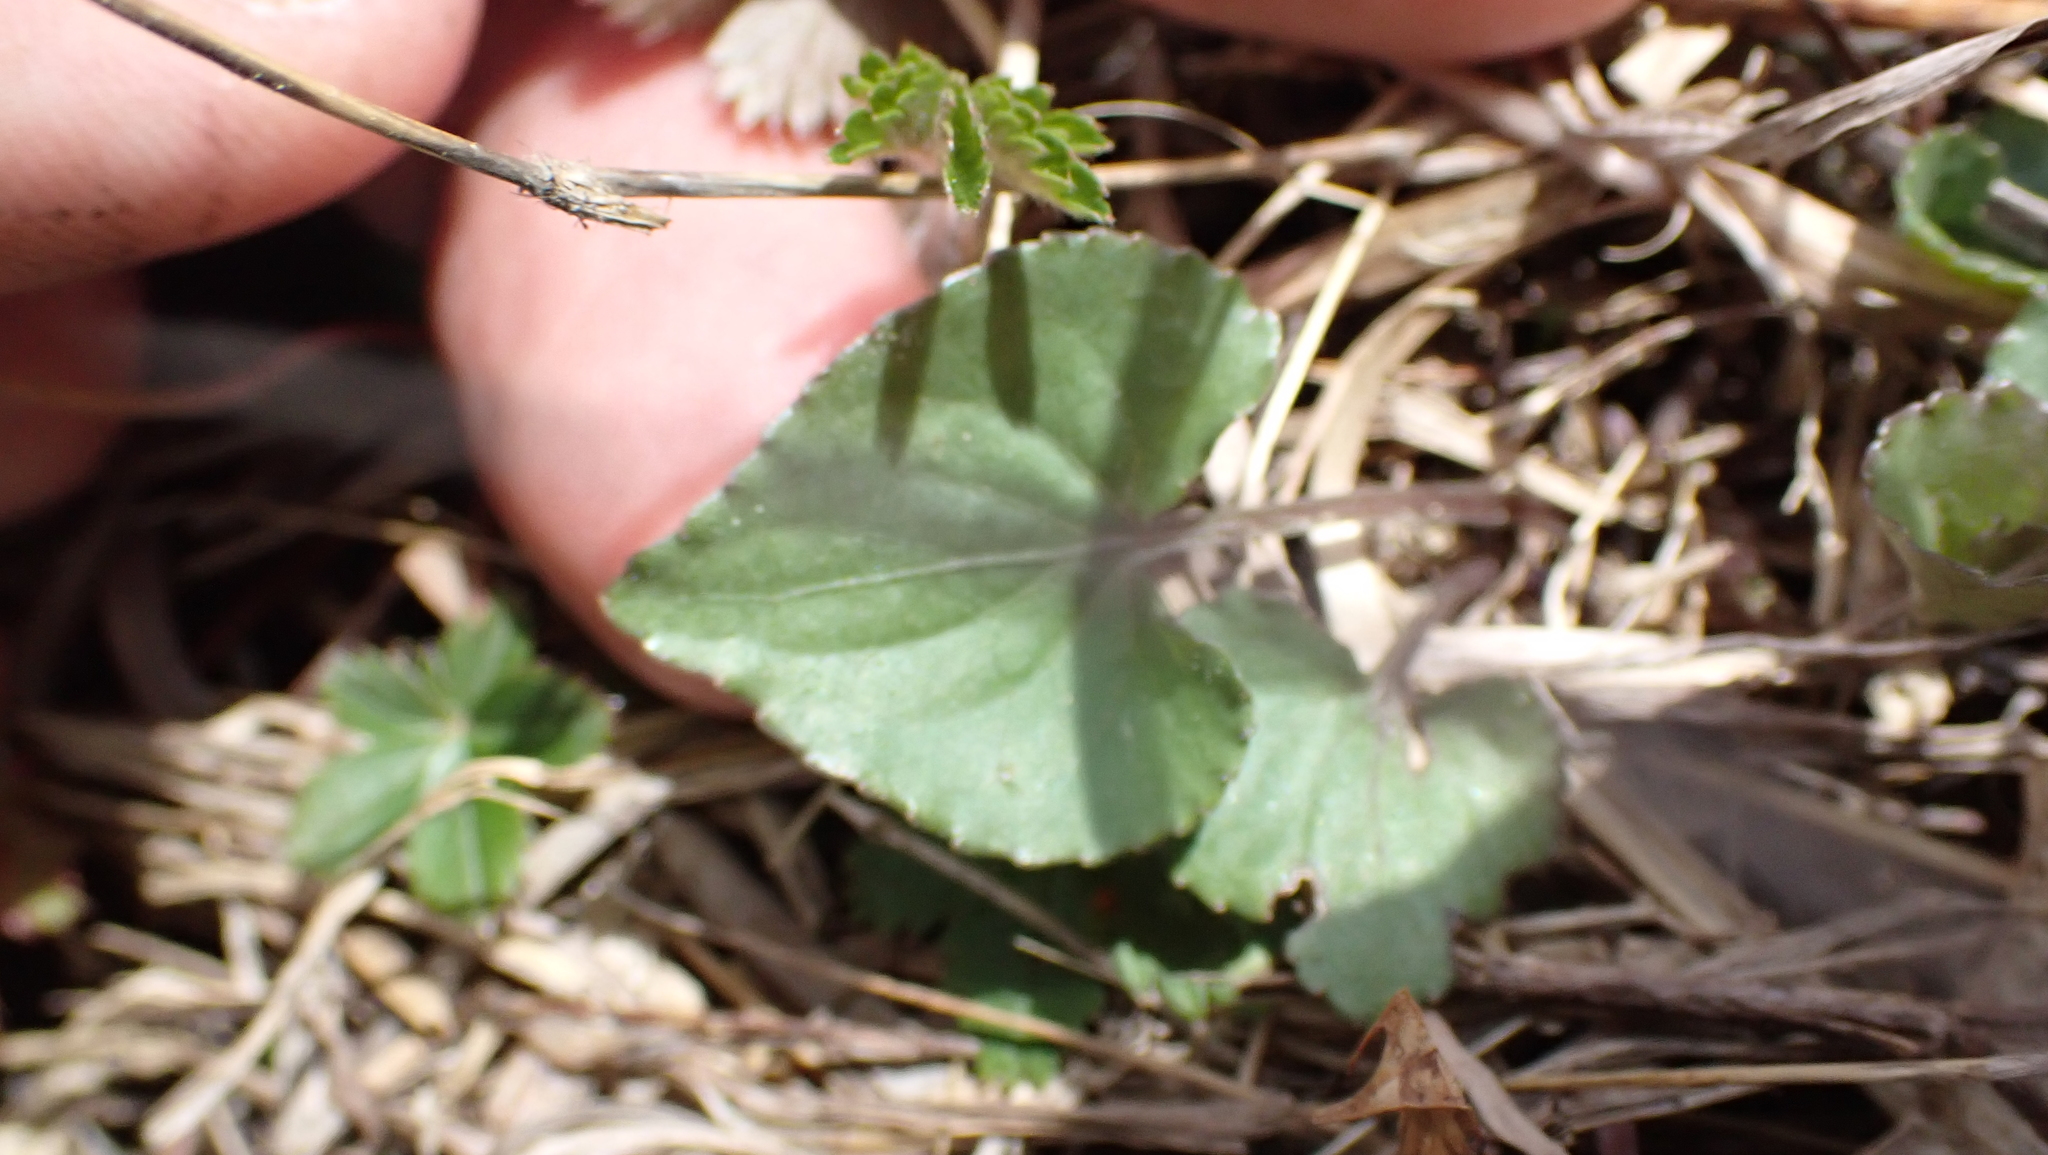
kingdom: Plantae
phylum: Tracheophyta
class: Magnoliopsida
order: Malpighiales
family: Violaceae
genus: Viola
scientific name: Viola sororia
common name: Dooryard violet
